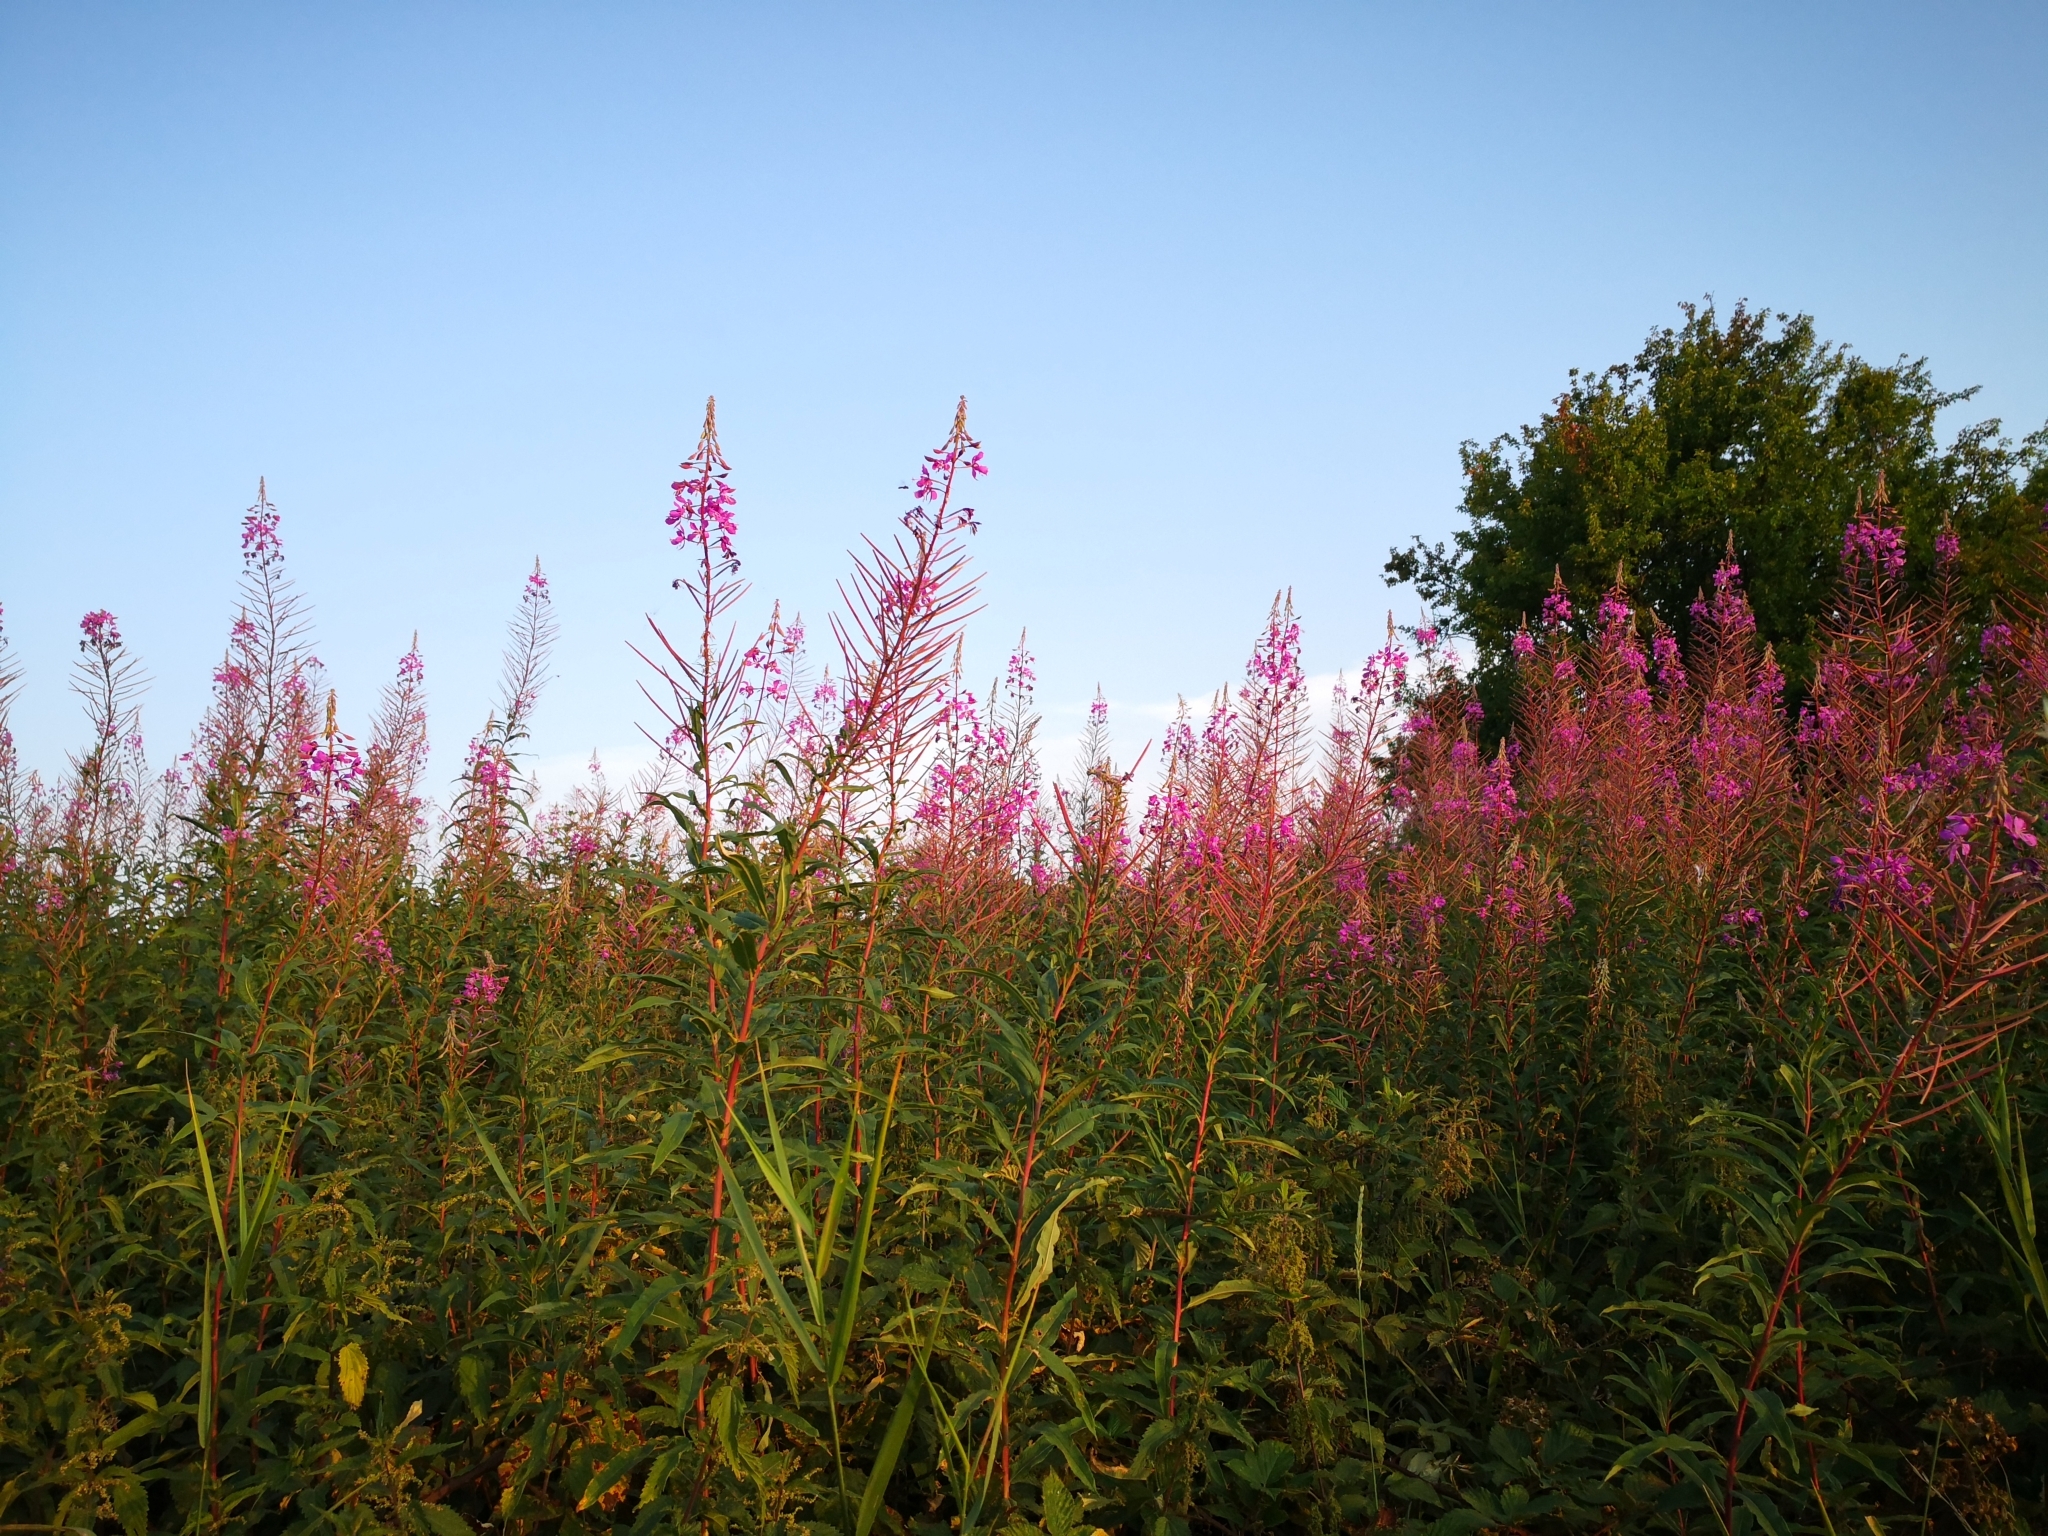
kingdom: Plantae
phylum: Tracheophyta
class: Magnoliopsida
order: Myrtales
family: Onagraceae
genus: Chamaenerion
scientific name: Chamaenerion angustifolium
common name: Fireweed
